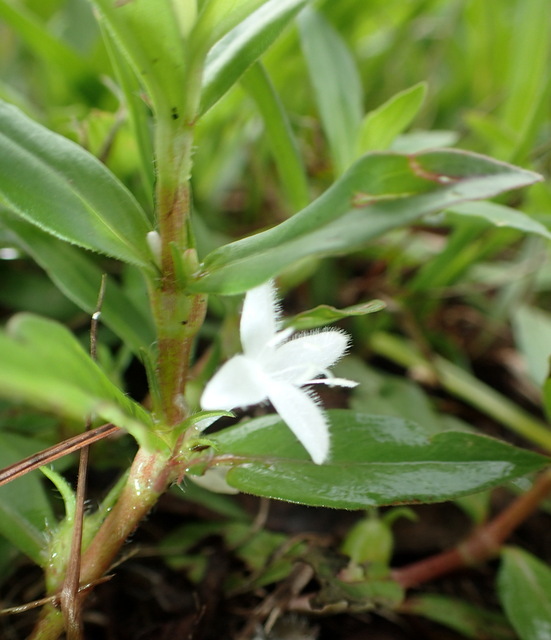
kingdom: Plantae
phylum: Tracheophyta
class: Magnoliopsida
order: Gentianales
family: Rubiaceae
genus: Diodia
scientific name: Diodia virginiana
